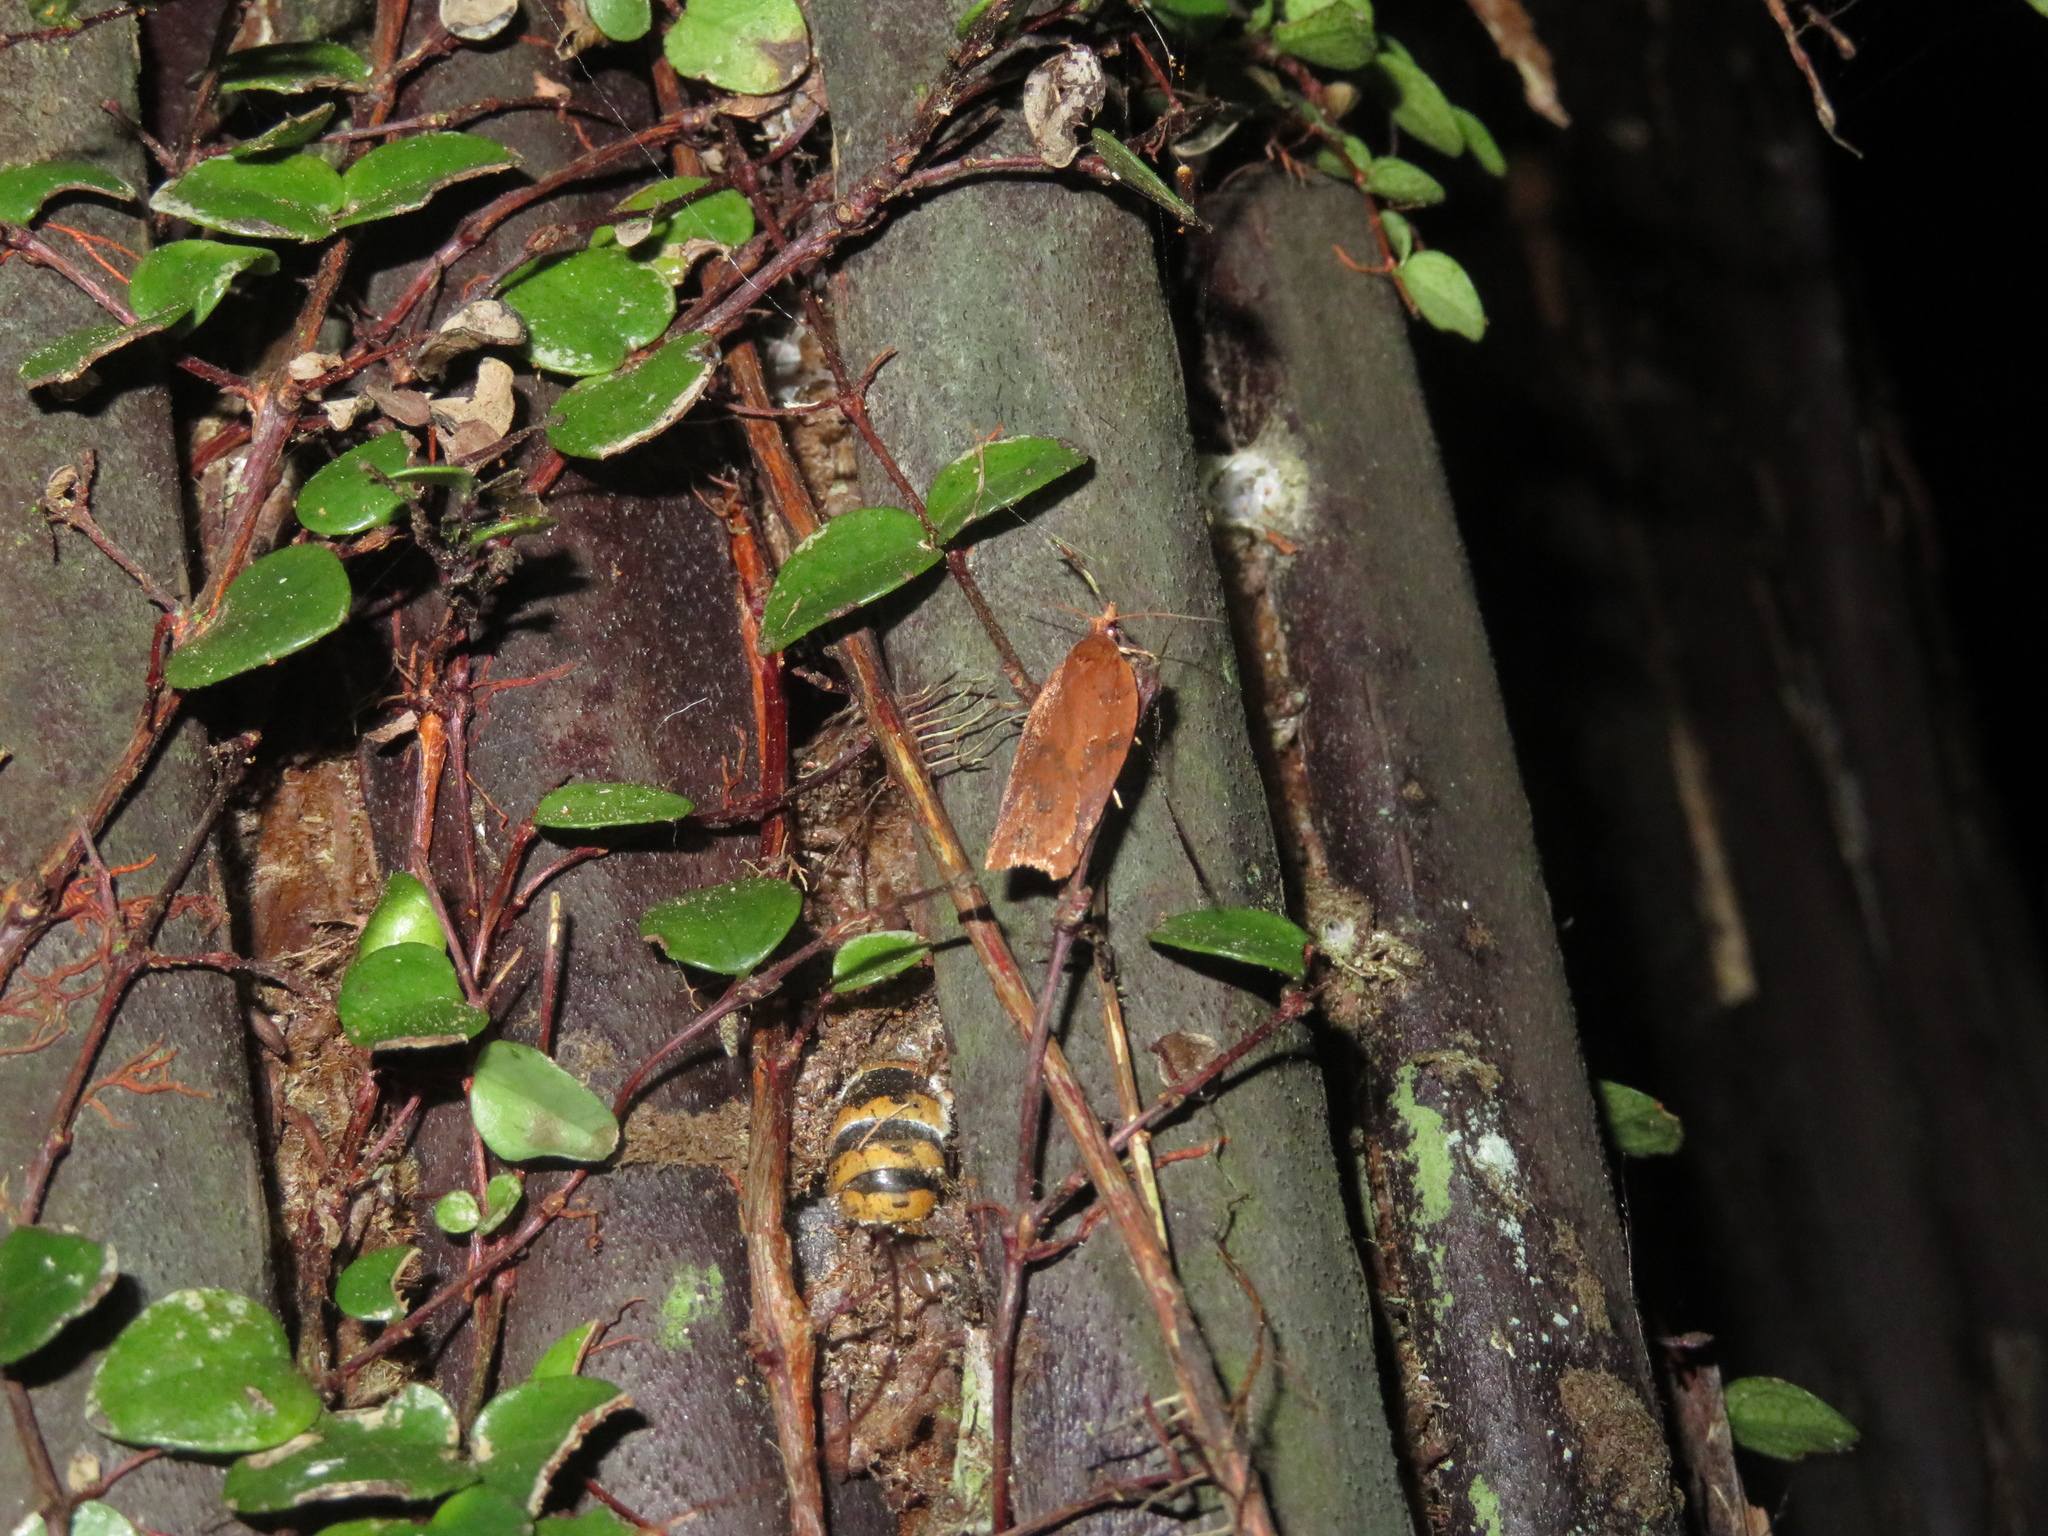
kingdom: Animalia
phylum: Arthropoda
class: Insecta
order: Lepidoptera
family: Tortricidae
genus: Planotortrix
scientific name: Planotortrix notophaea
